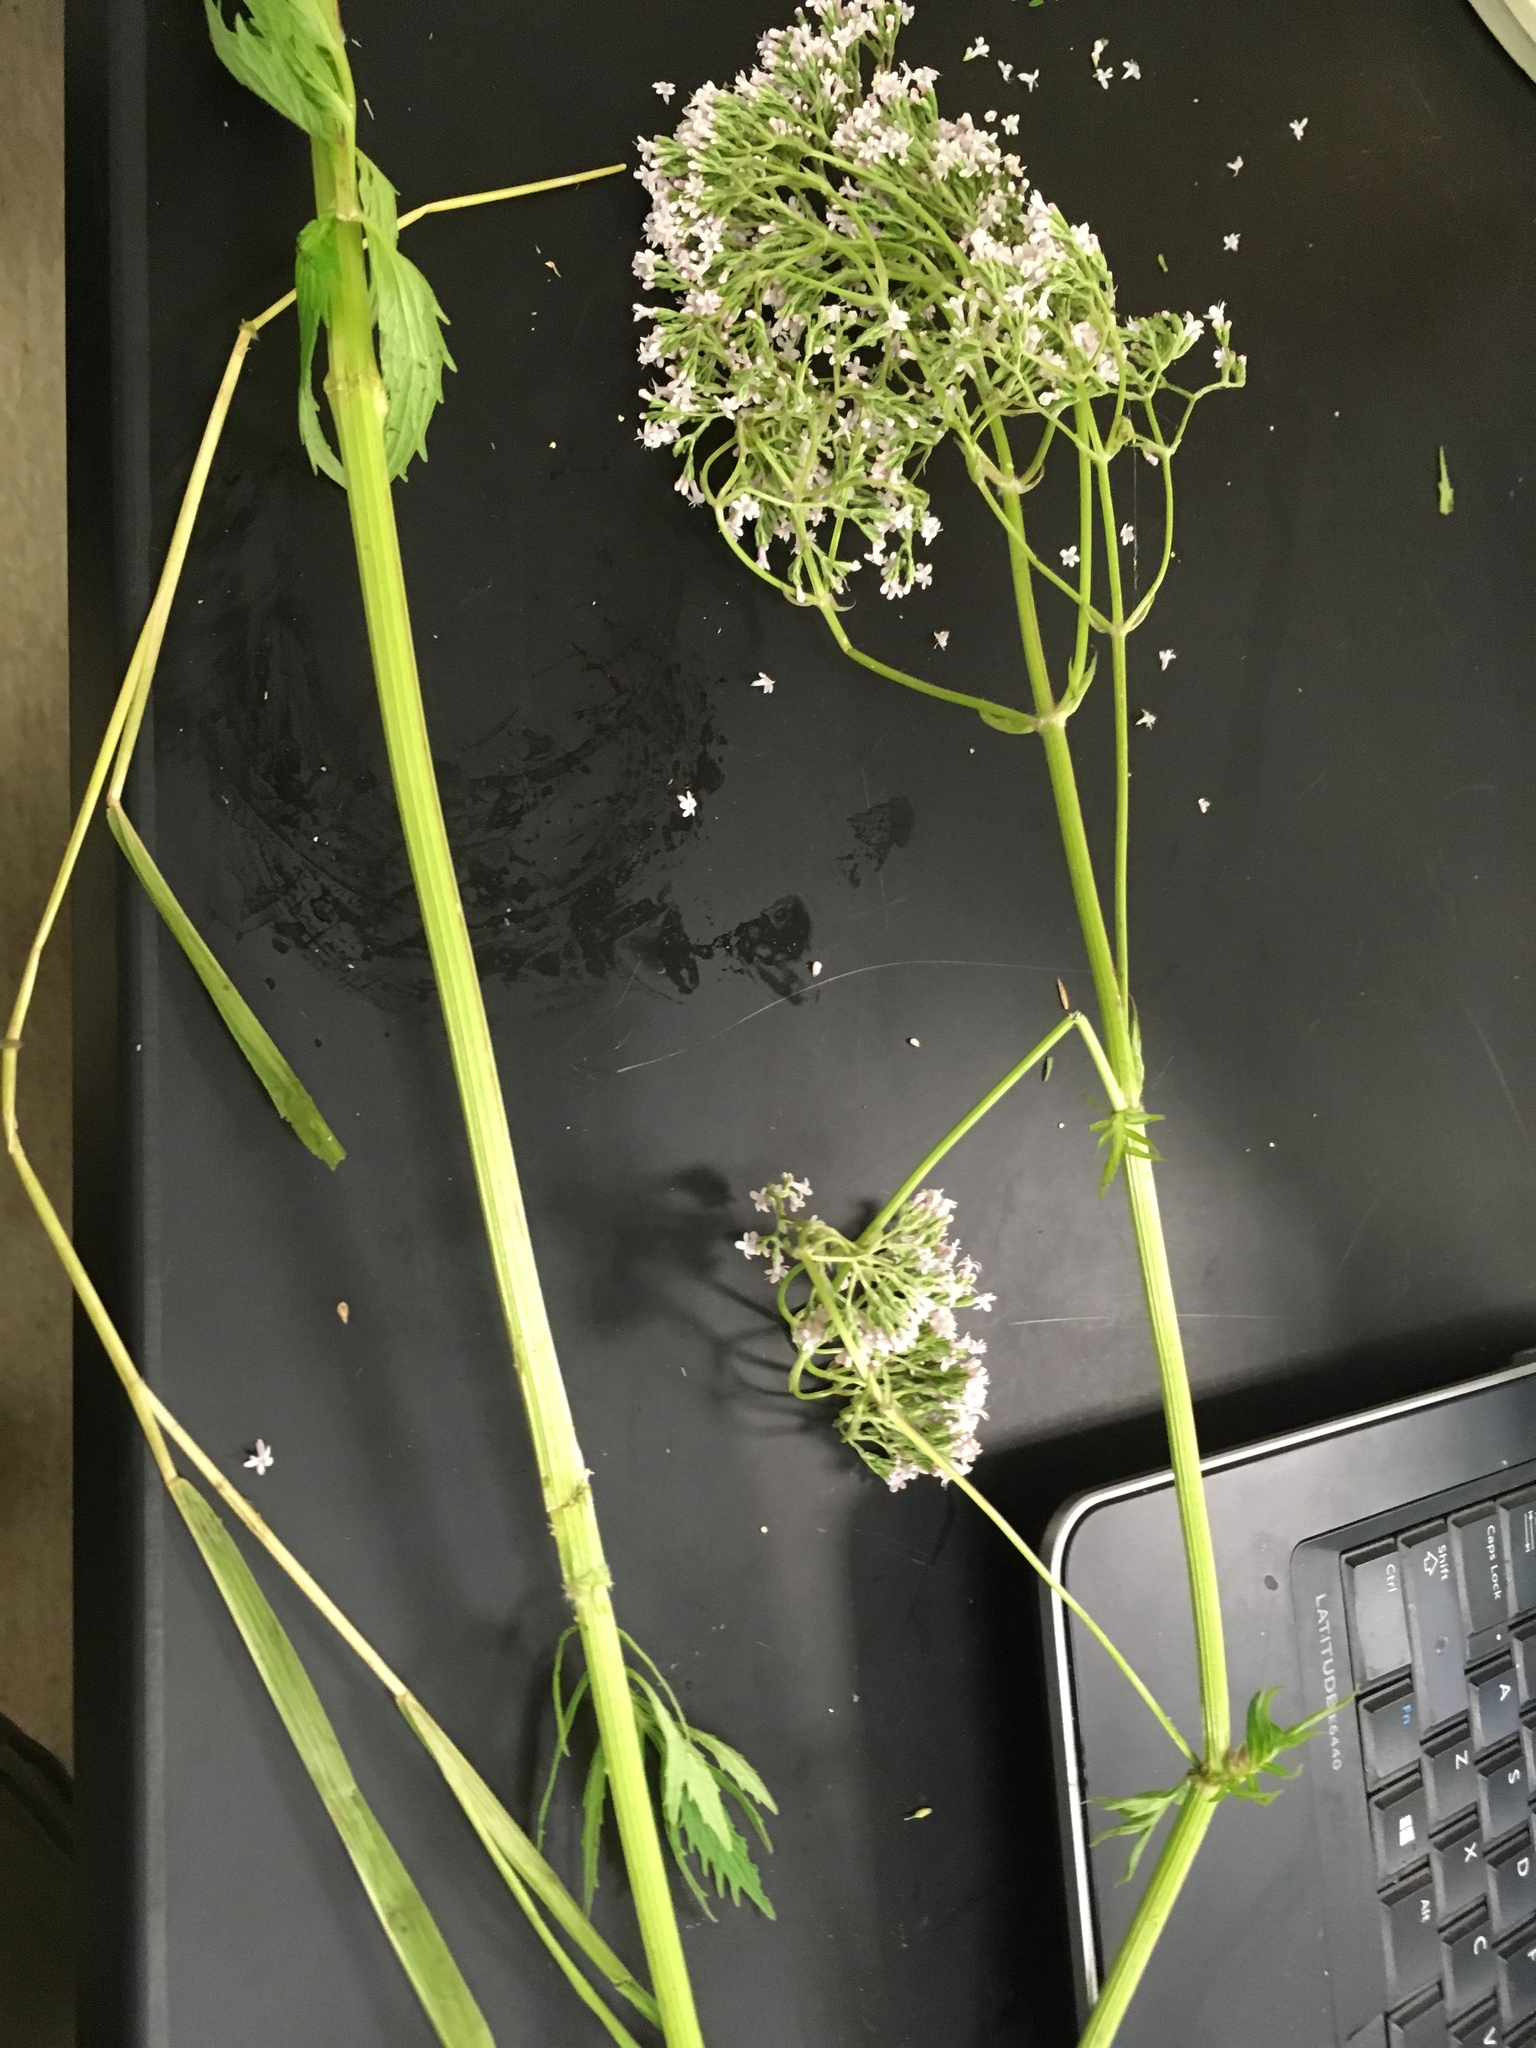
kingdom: Plantae
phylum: Tracheophyta
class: Magnoliopsida
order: Dipsacales
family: Caprifoliaceae
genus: Valeriana
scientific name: Valeriana officinalis
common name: Common valerian
